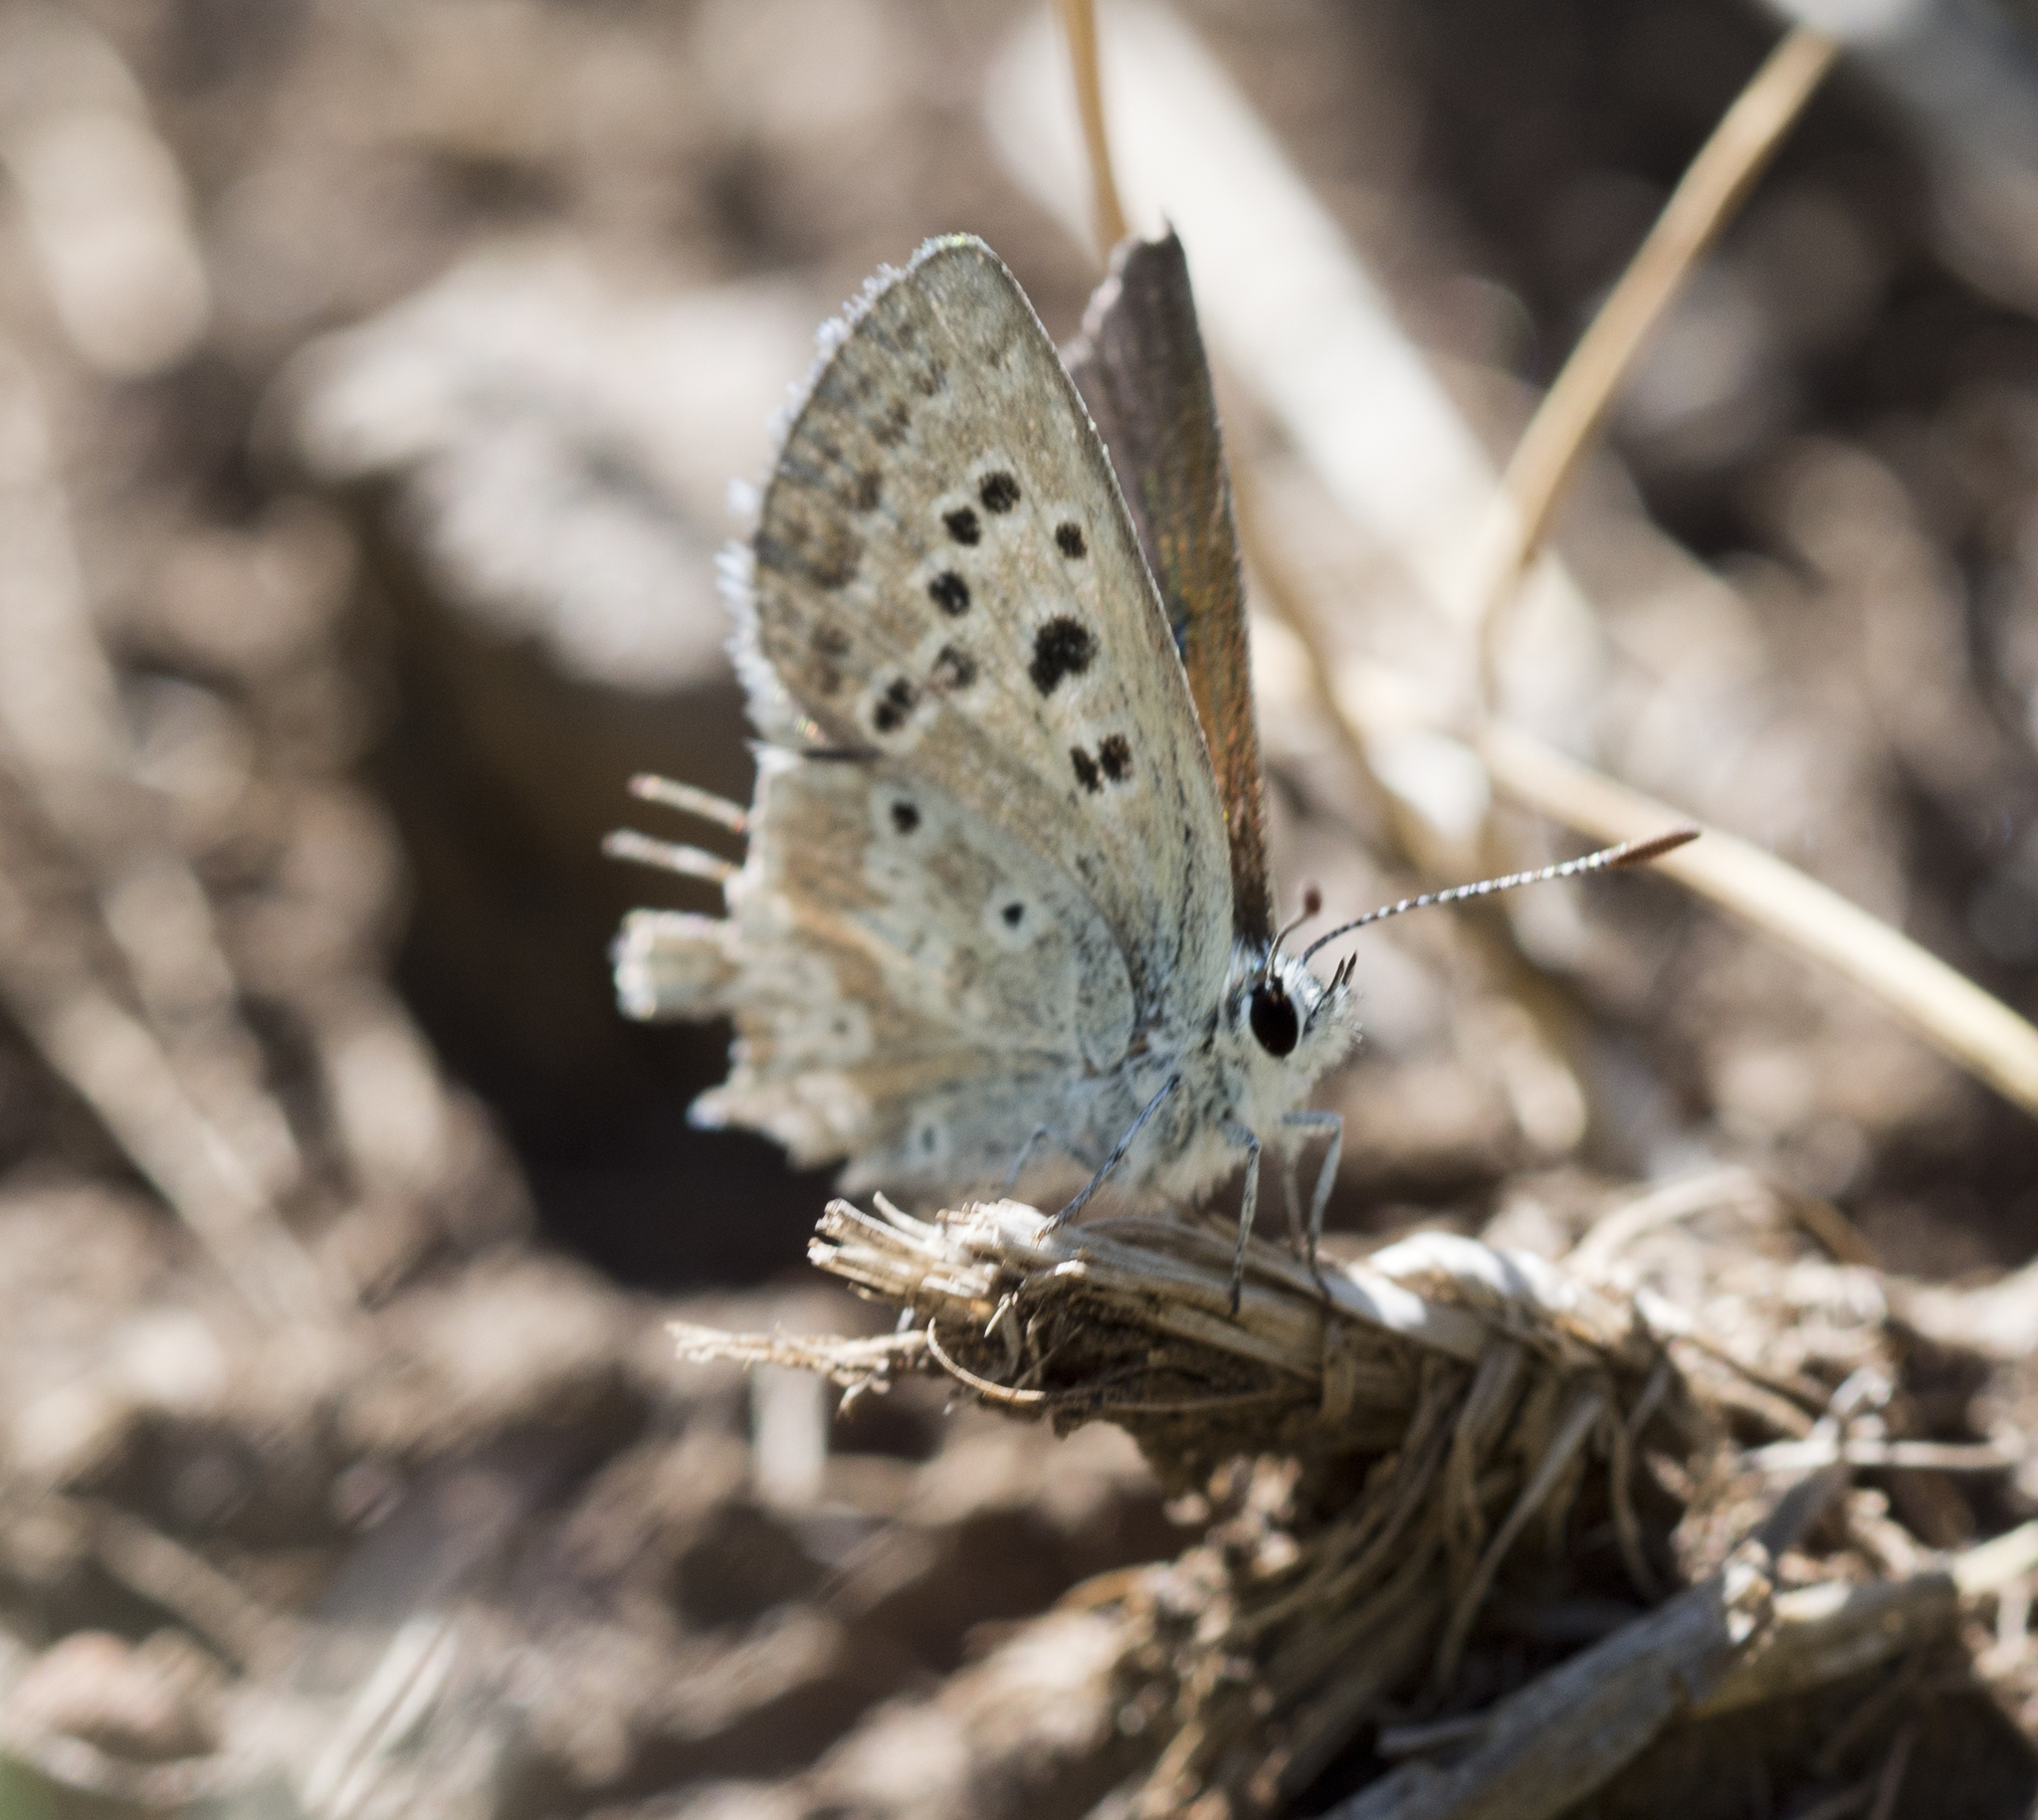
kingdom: Animalia
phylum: Arthropoda
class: Insecta
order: Lepidoptera
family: Lycaenidae
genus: Icaricia
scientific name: Icaricia icarioides
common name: Boisduval's blue
